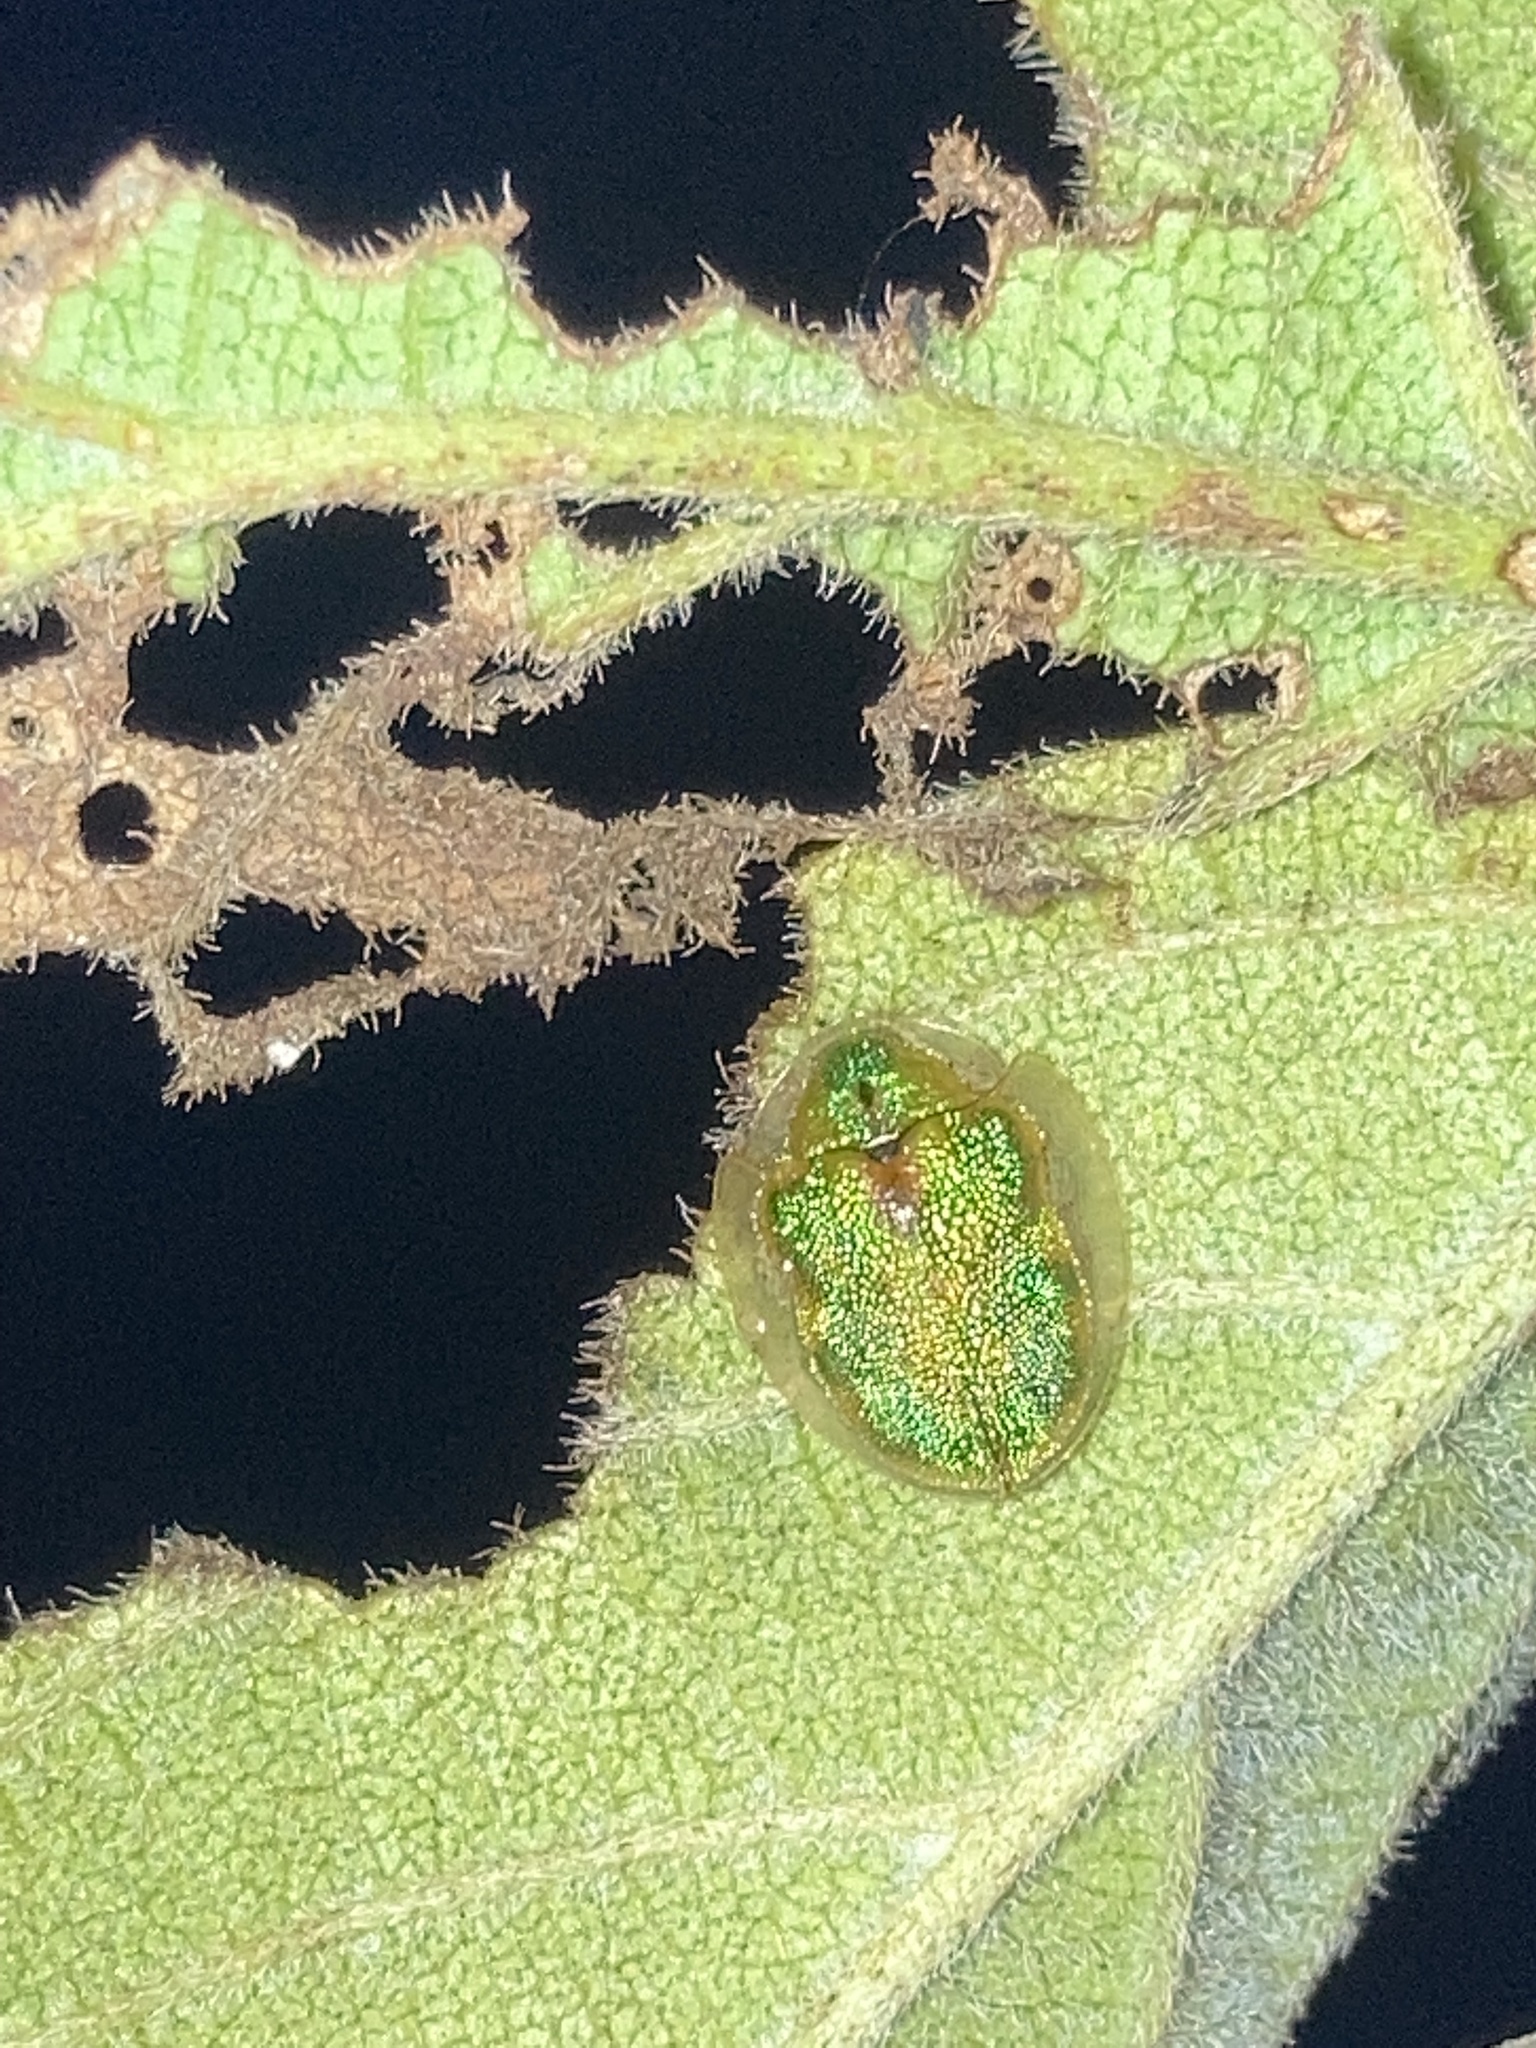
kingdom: Animalia
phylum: Arthropoda
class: Insecta
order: Coleoptera
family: Chrysomelidae
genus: Eurypepla
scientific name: Eurypepla calochroma
